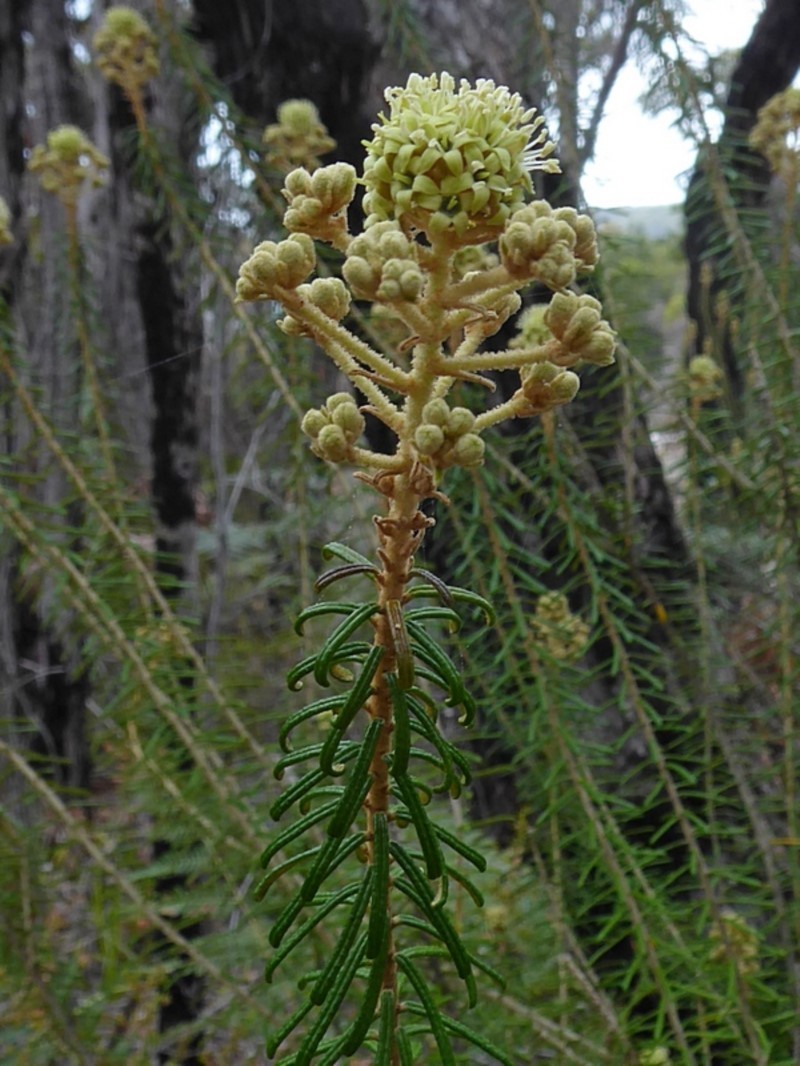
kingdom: Plantae
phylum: Tracheophyta
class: Magnoliopsida
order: Apiales
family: Araliaceae
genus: Astrotricha
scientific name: Astrotricha
